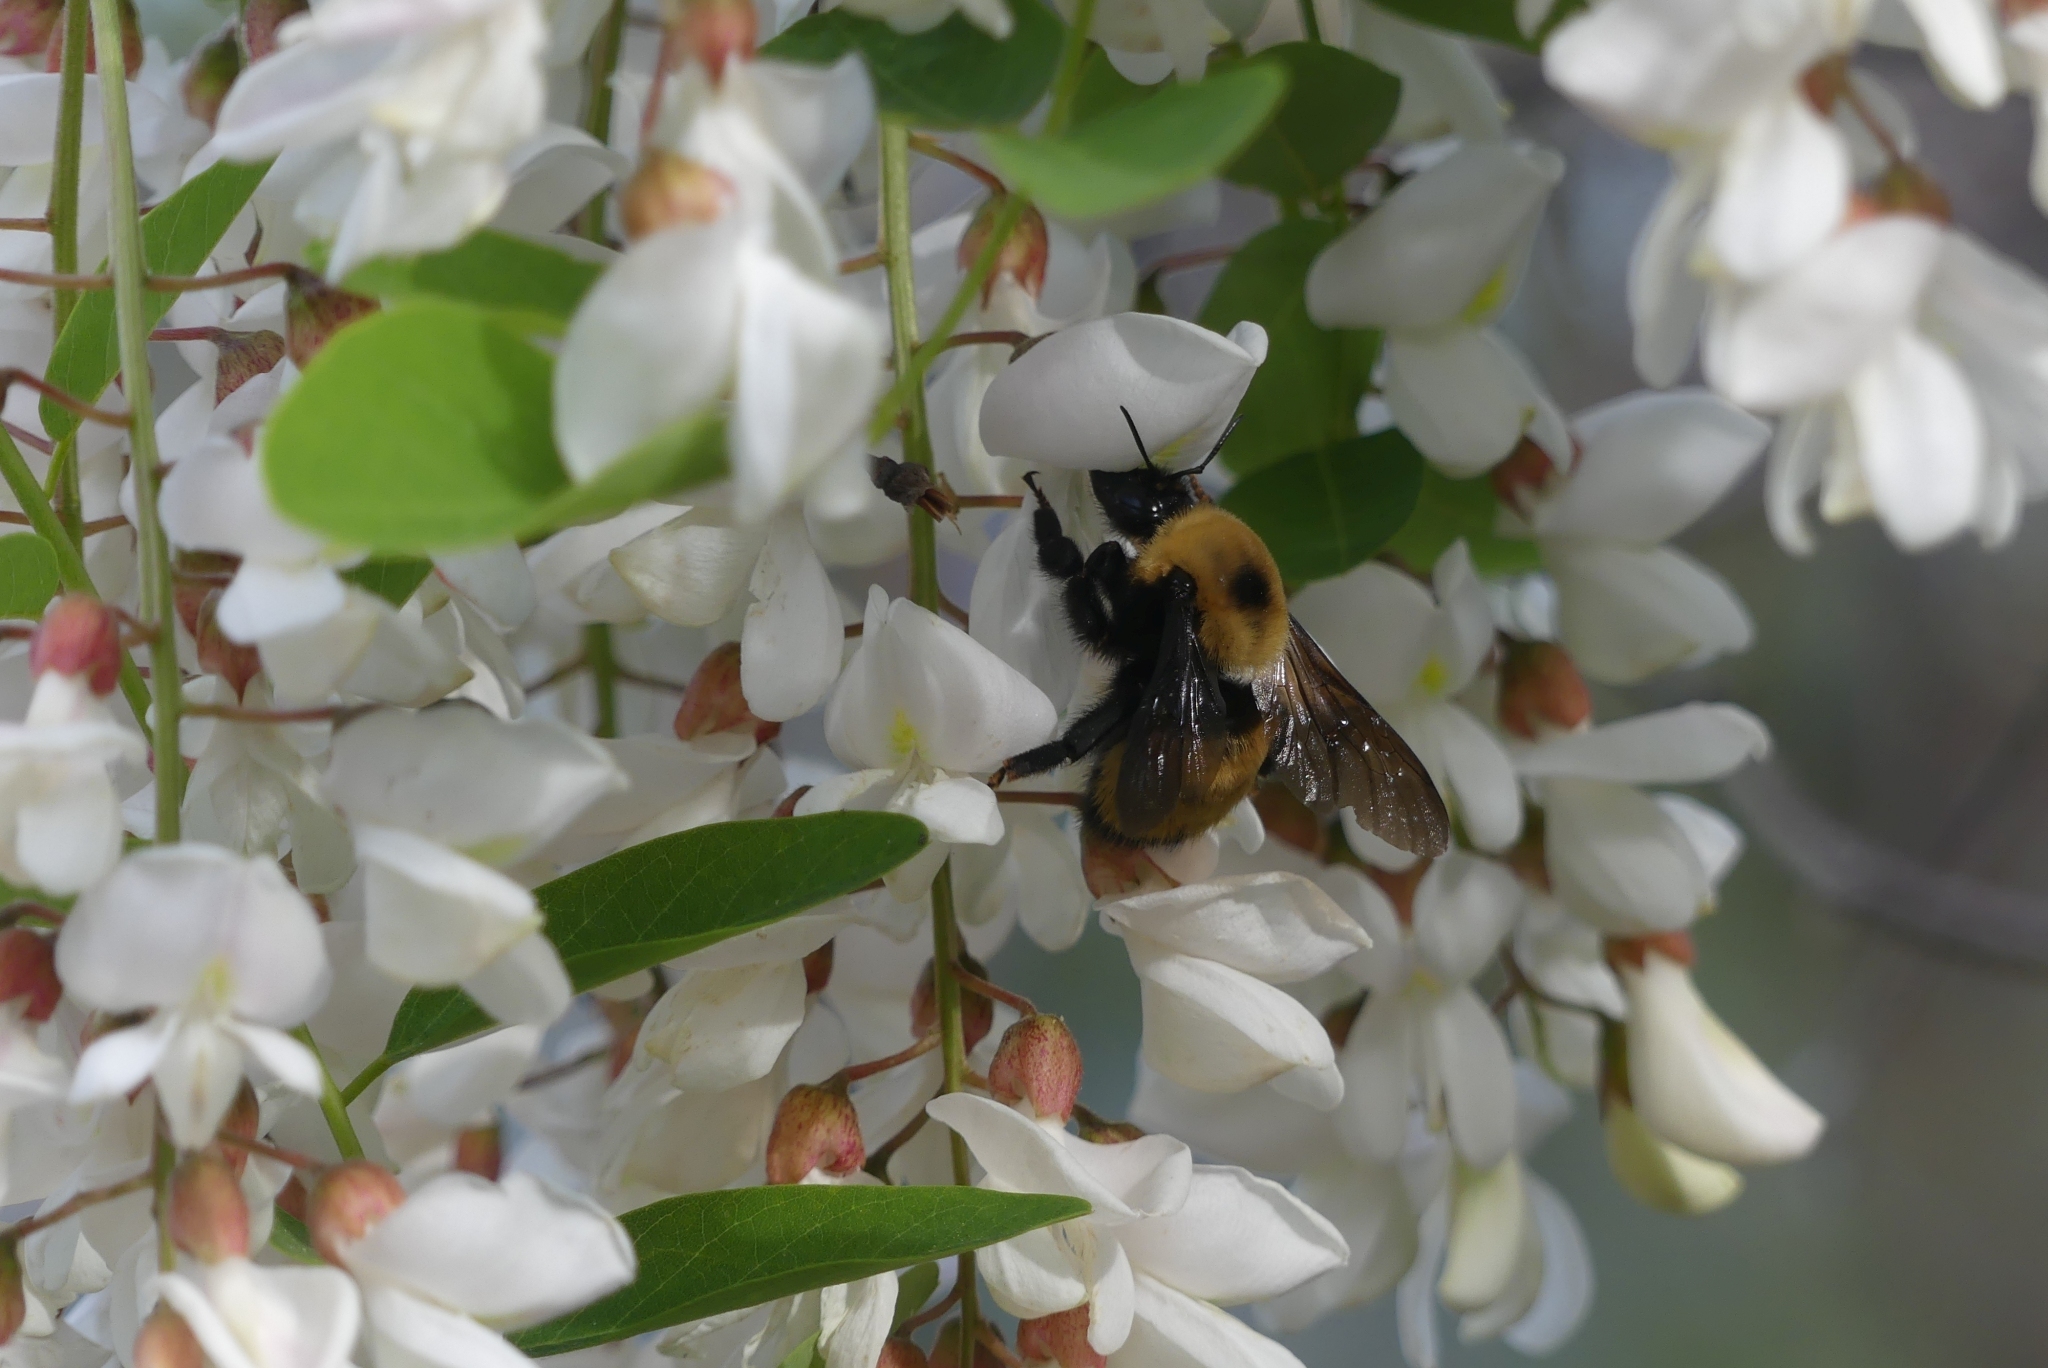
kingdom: Animalia
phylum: Arthropoda
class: Insecta
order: Hymenoptera
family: Apidae
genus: Bombus
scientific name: Bombus nevadensis
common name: Nevada bumble bee
